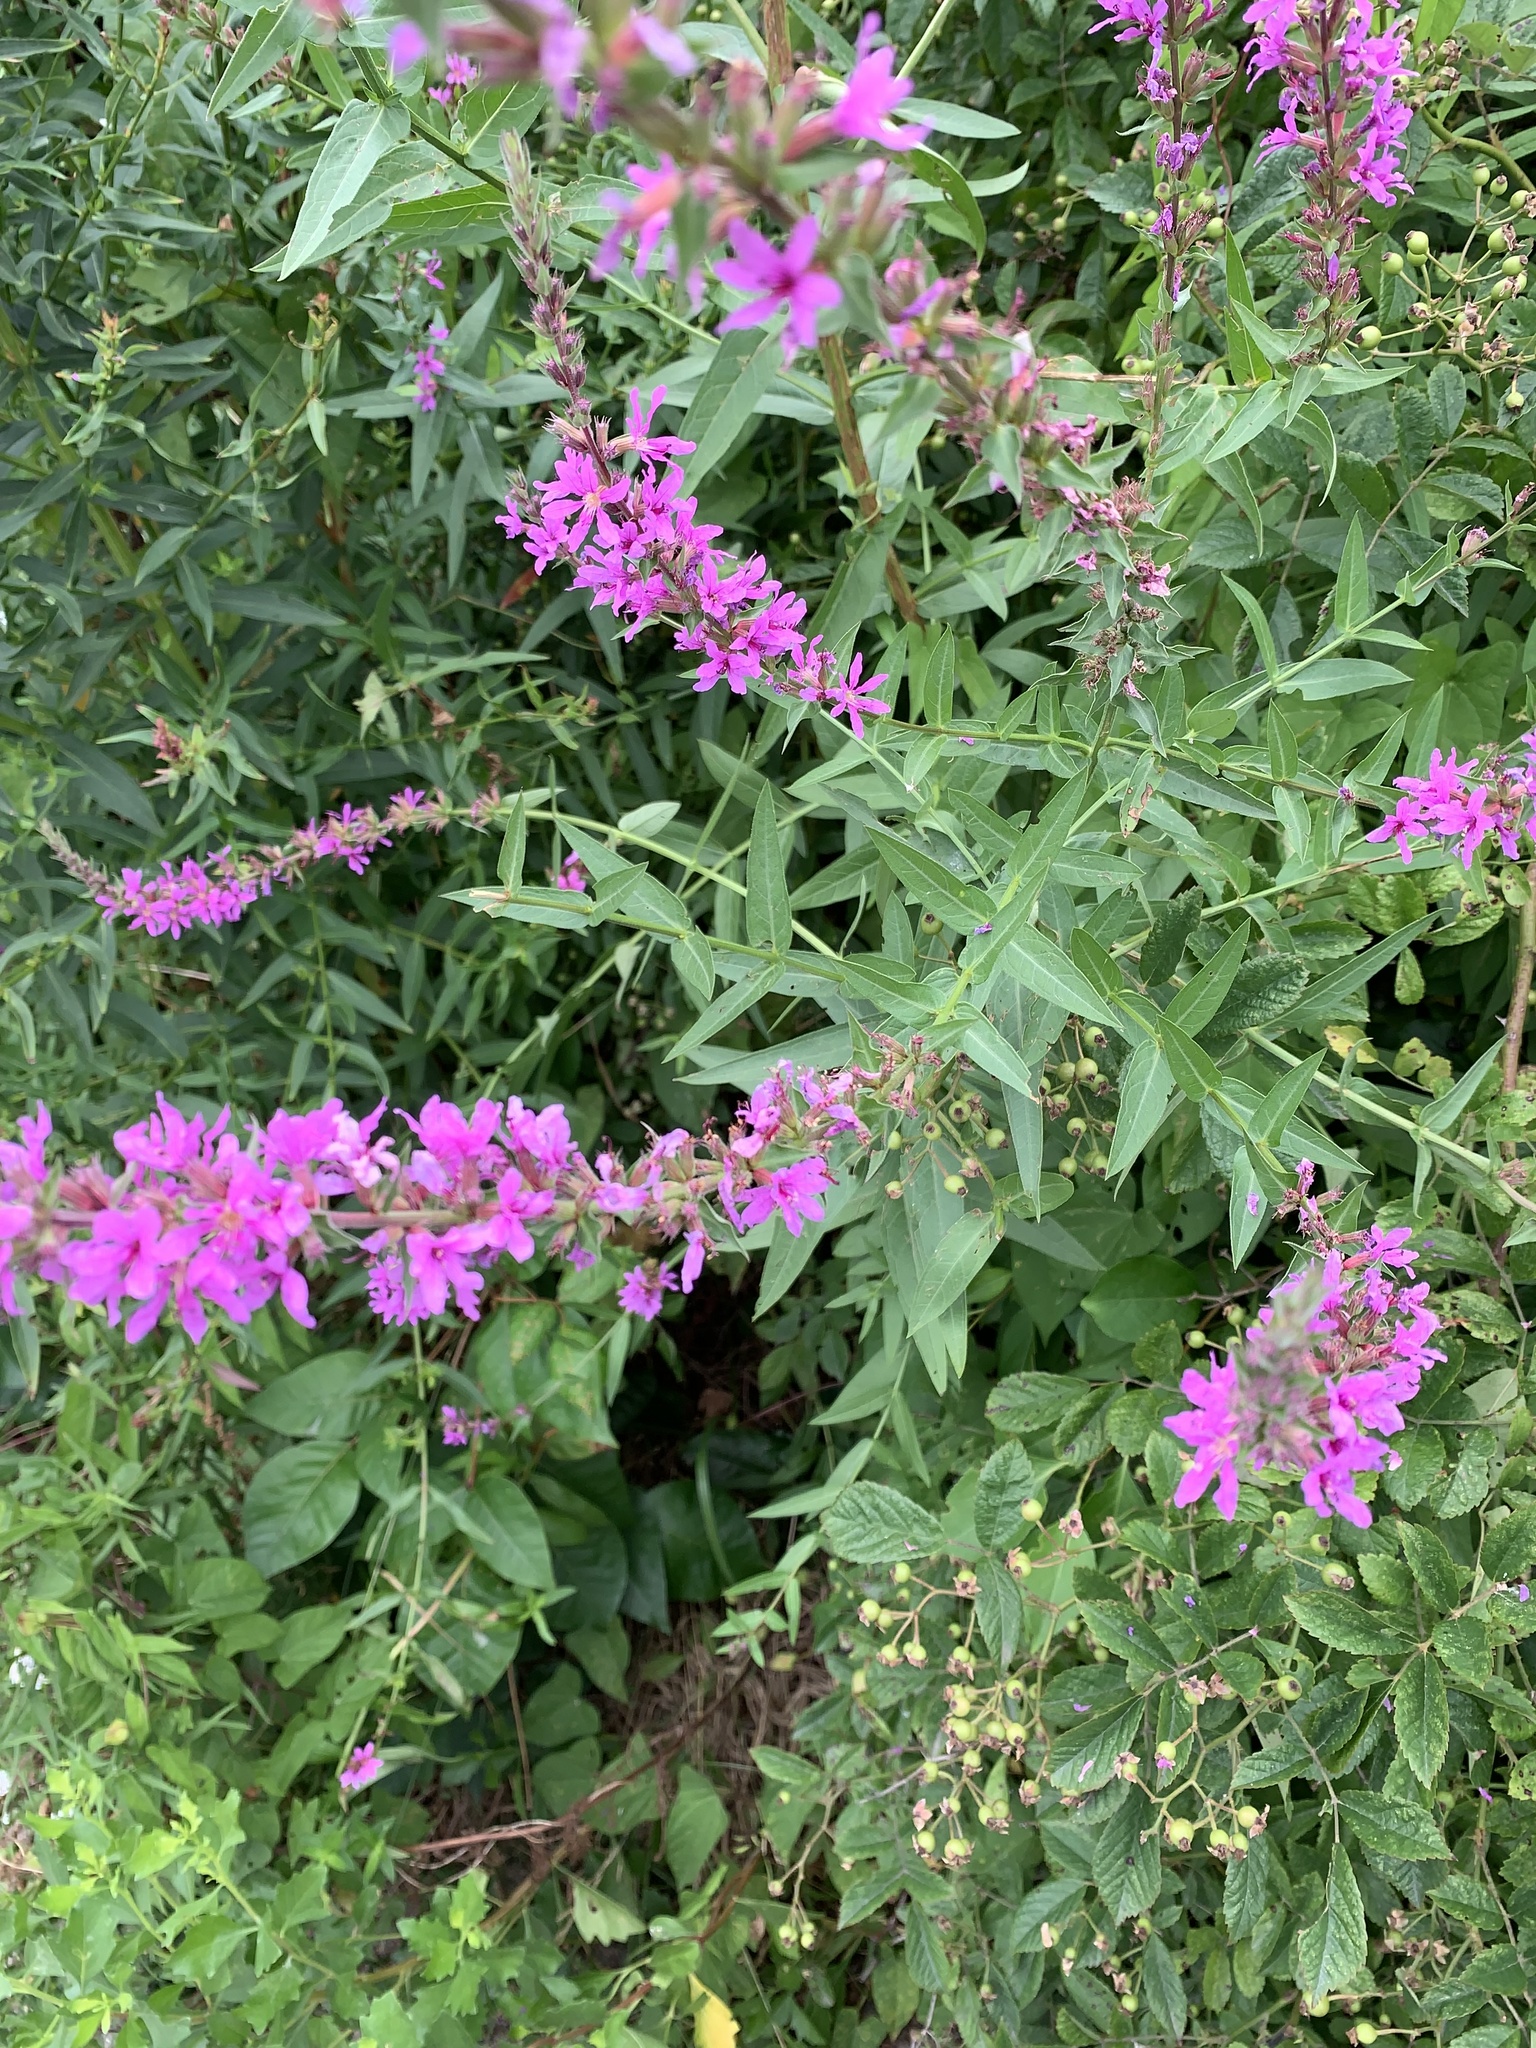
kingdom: Plantae
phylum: Tracheophyta
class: Magnoliopsida
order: Myrtales
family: Lythraceae
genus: Lythrum
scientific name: Lythrum salicaria
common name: Purple loosestrife
